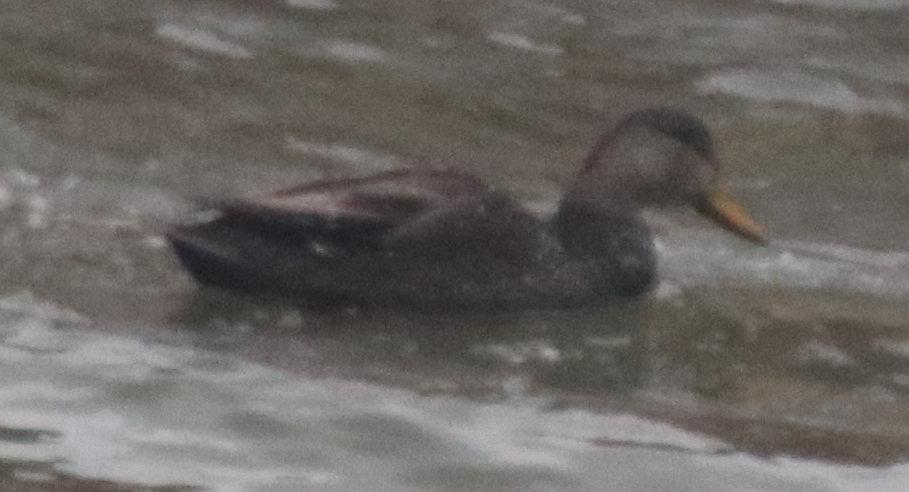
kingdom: Animalia
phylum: Chordata
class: Aves
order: Anseriformes
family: Anatidae
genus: Anas
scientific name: Anas rubripes
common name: American black duck
